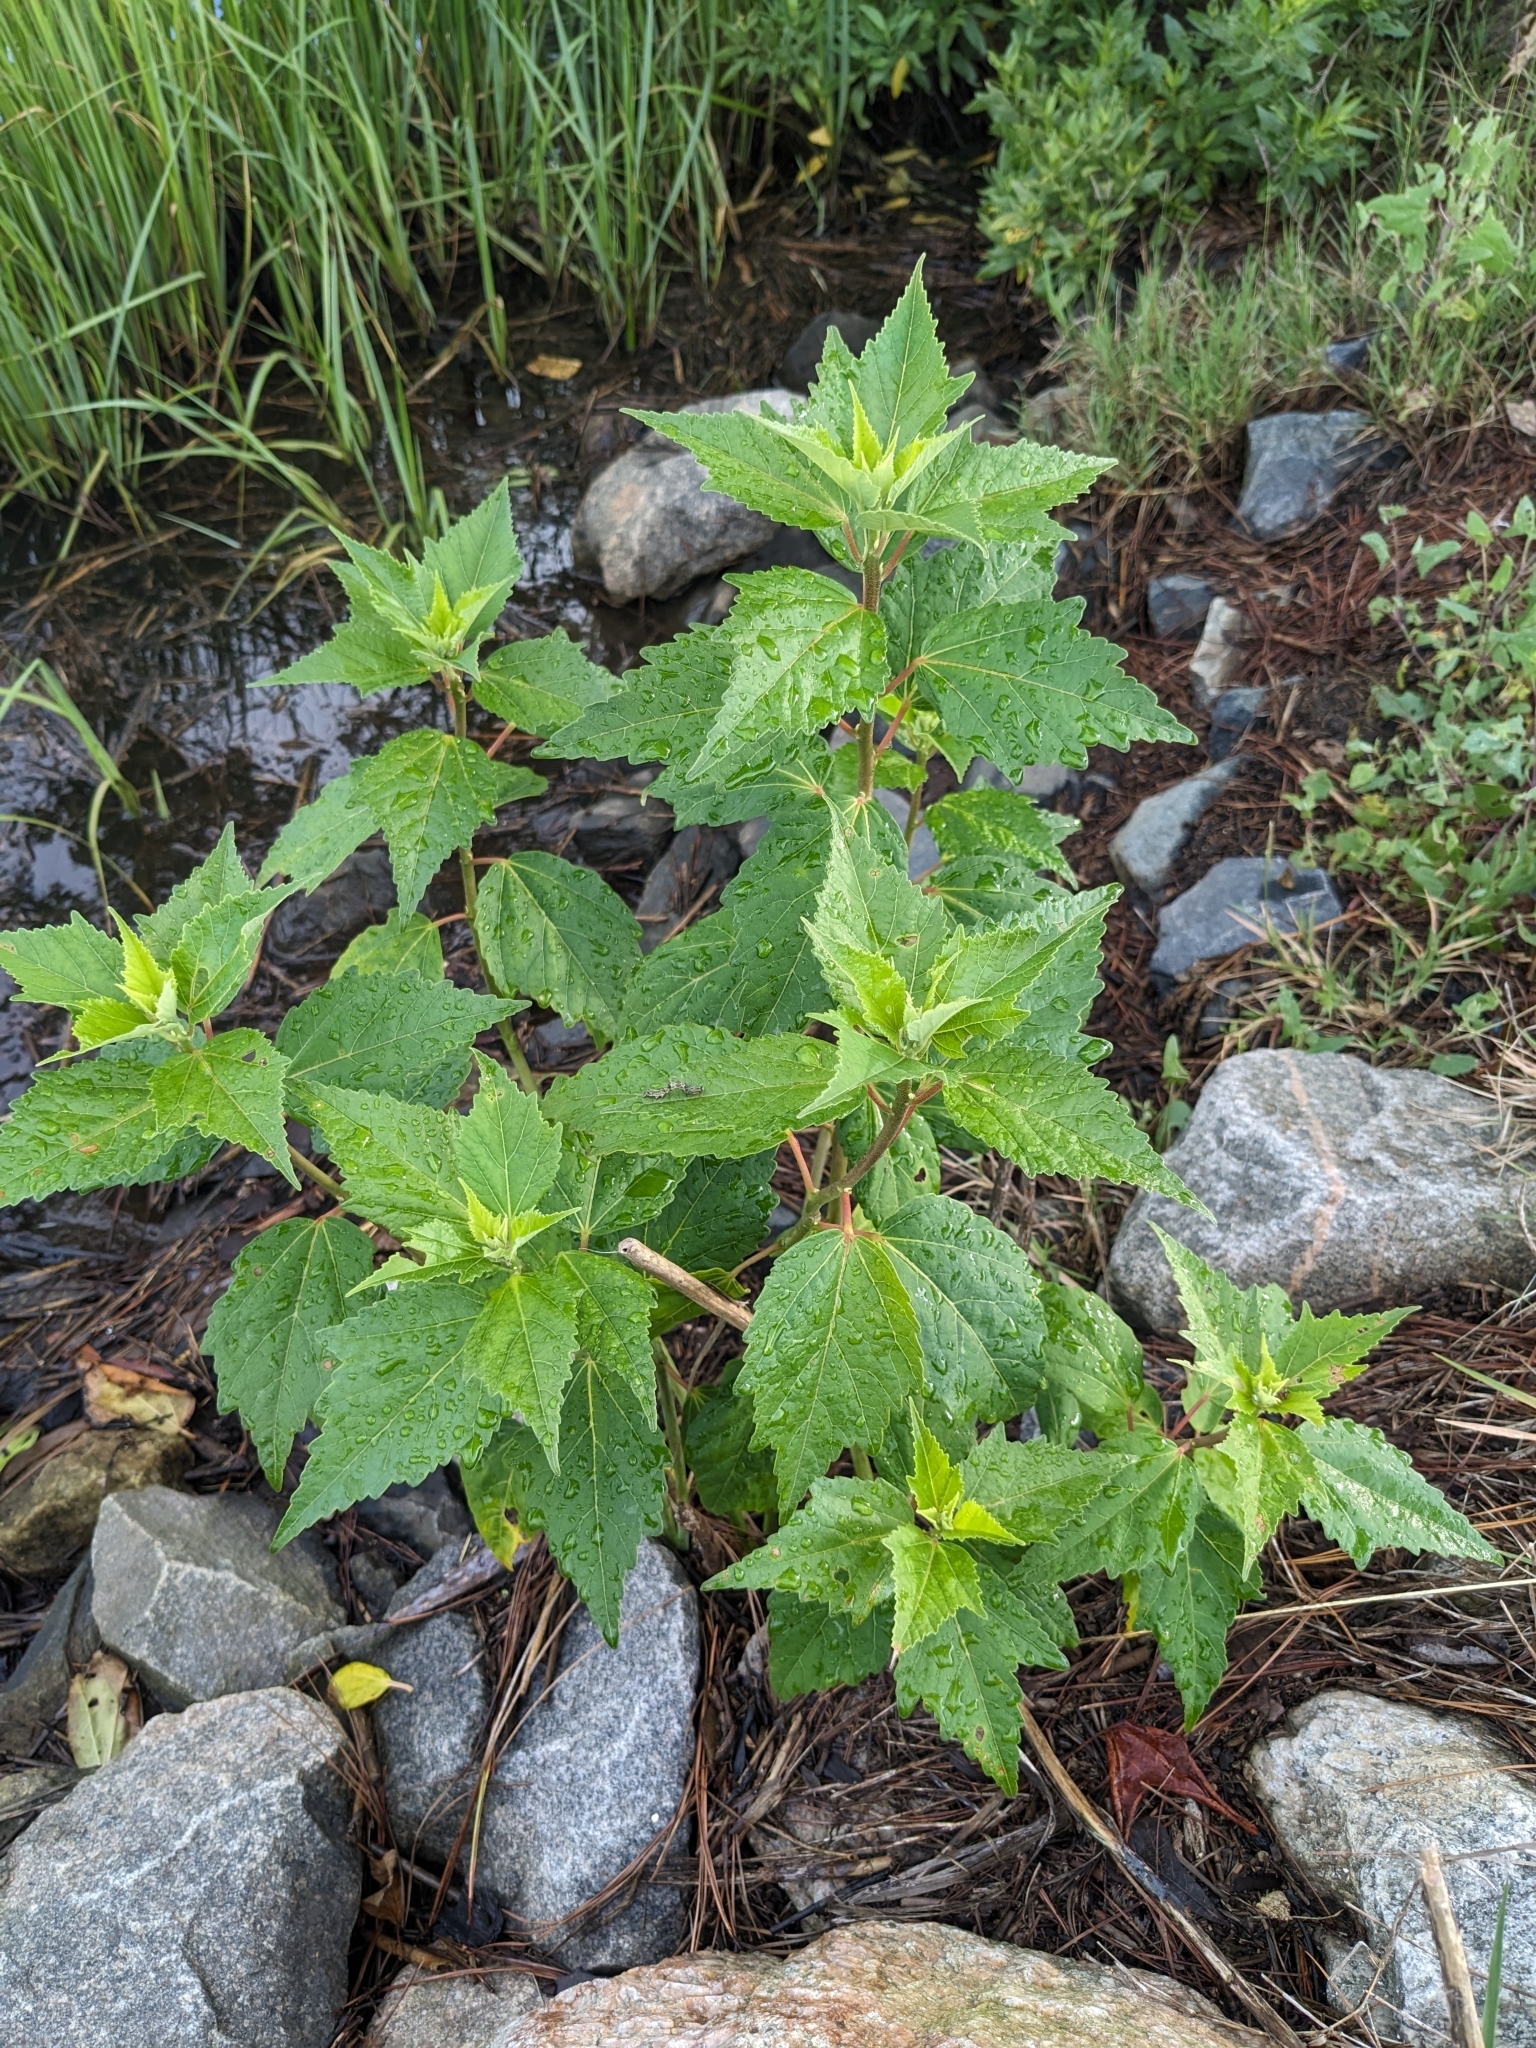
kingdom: Plantae
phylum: Tracheophyta
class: Magnoliopsida
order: Malvales
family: Malvaceae
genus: Hibiscus
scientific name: Hibiscus moscheutos
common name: Common rose-mallow
